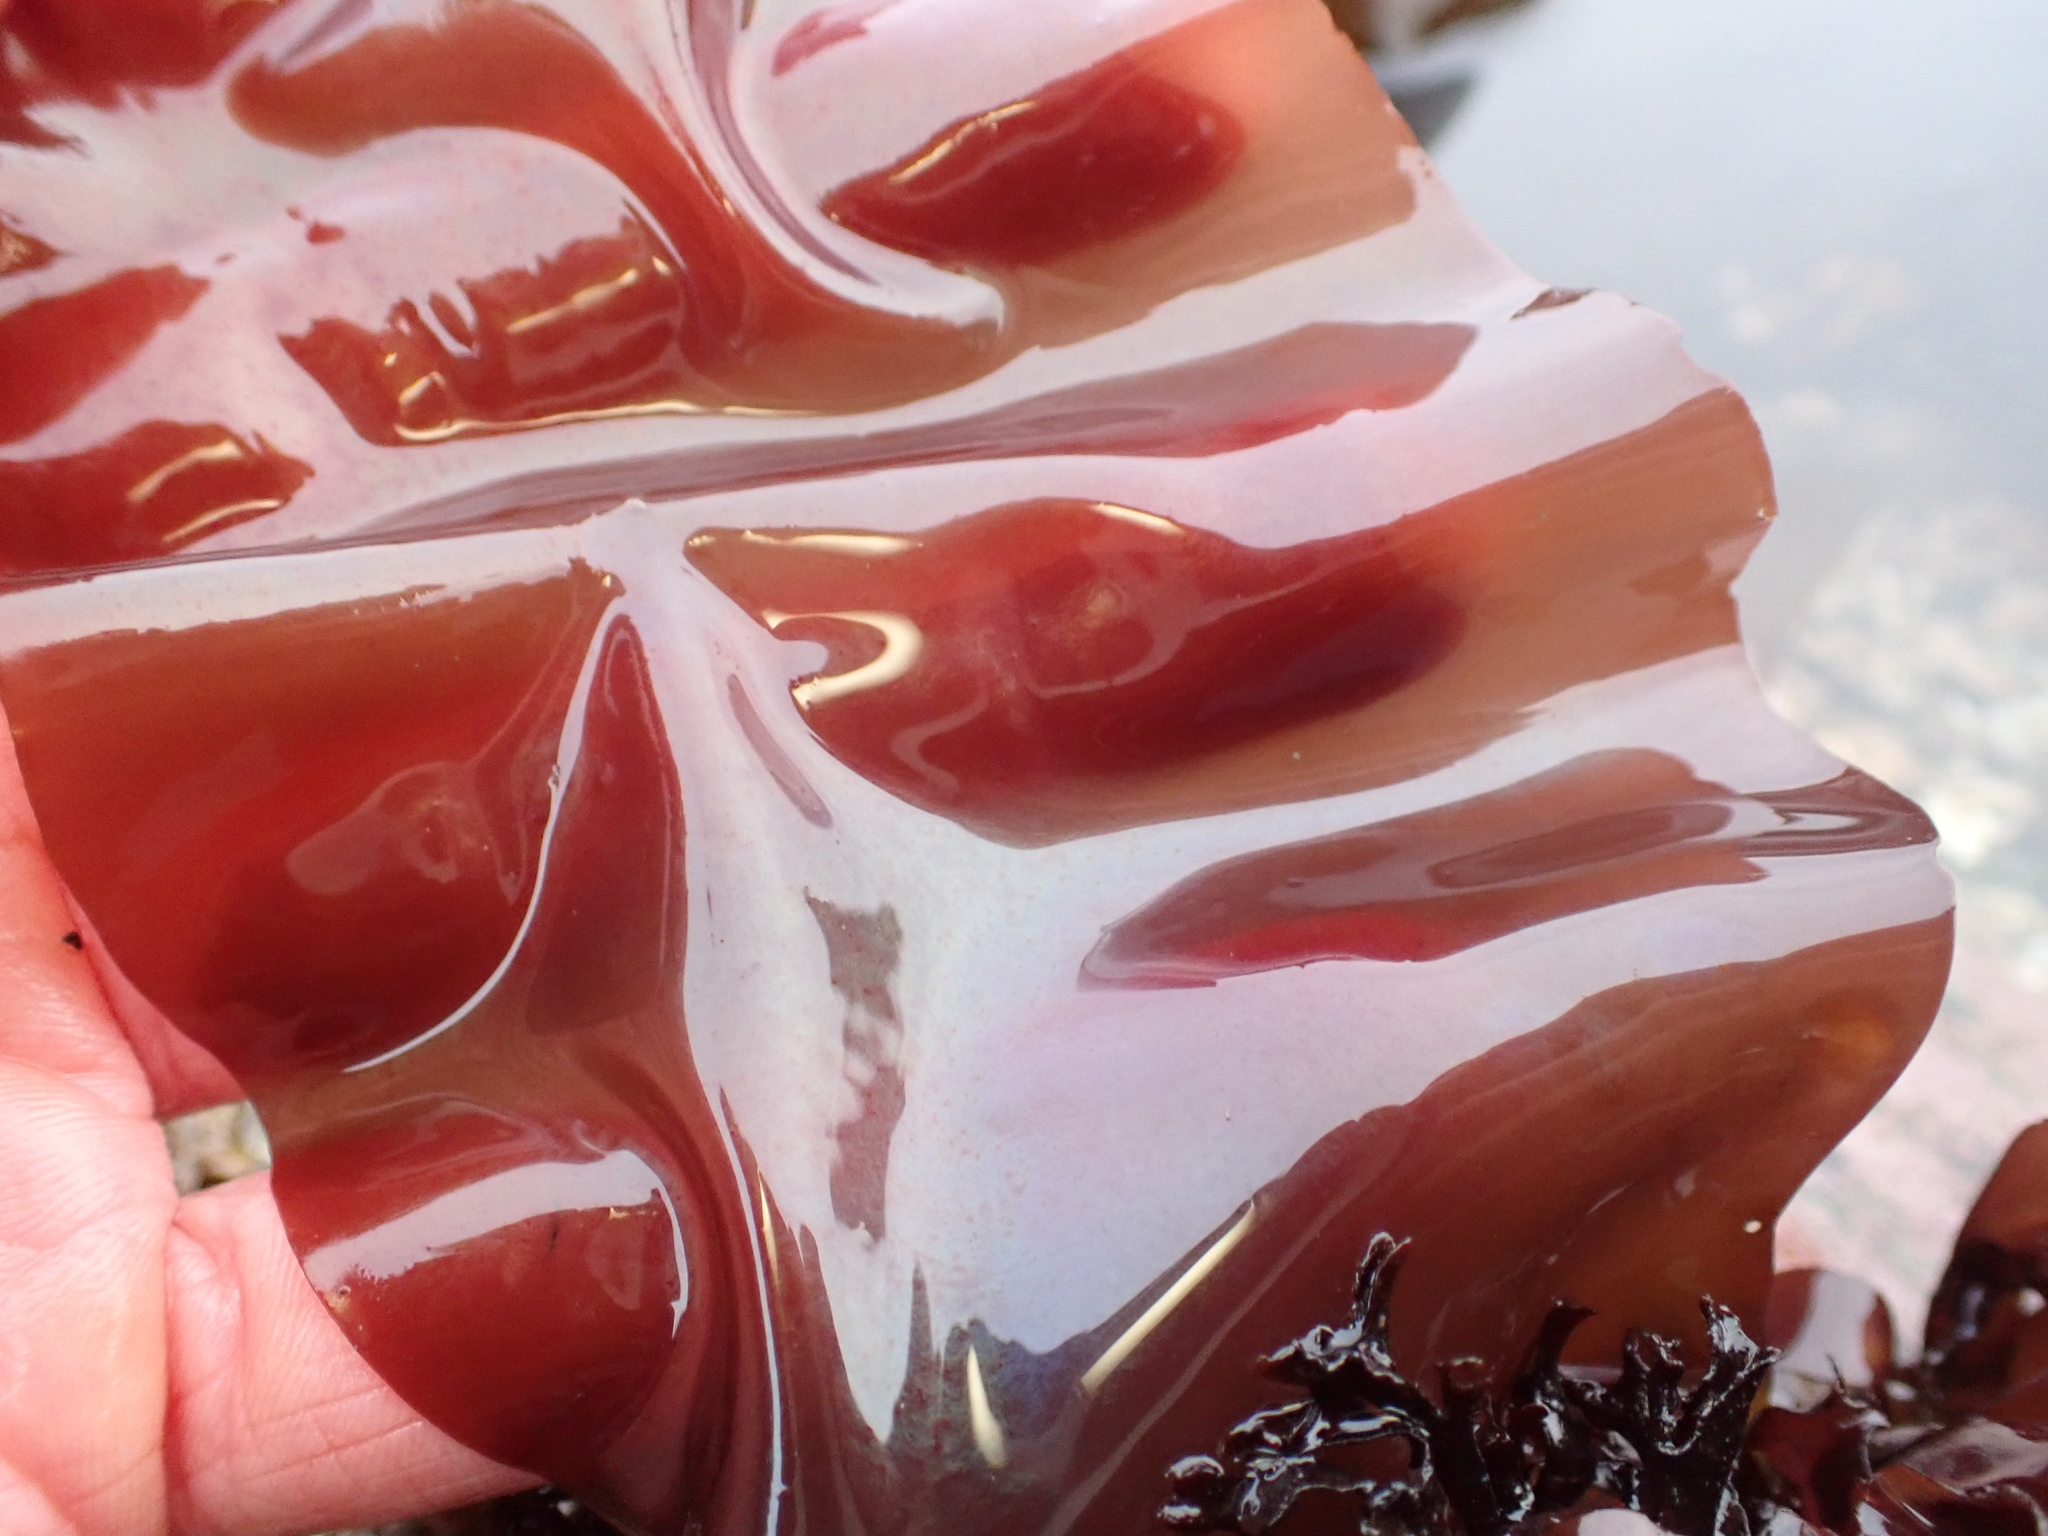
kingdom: Plantae
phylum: Rhodophyta
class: Florideophyceae
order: Gigartinales
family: Gigartinaceae
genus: Mazzaella
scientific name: Mazzaella splendens
